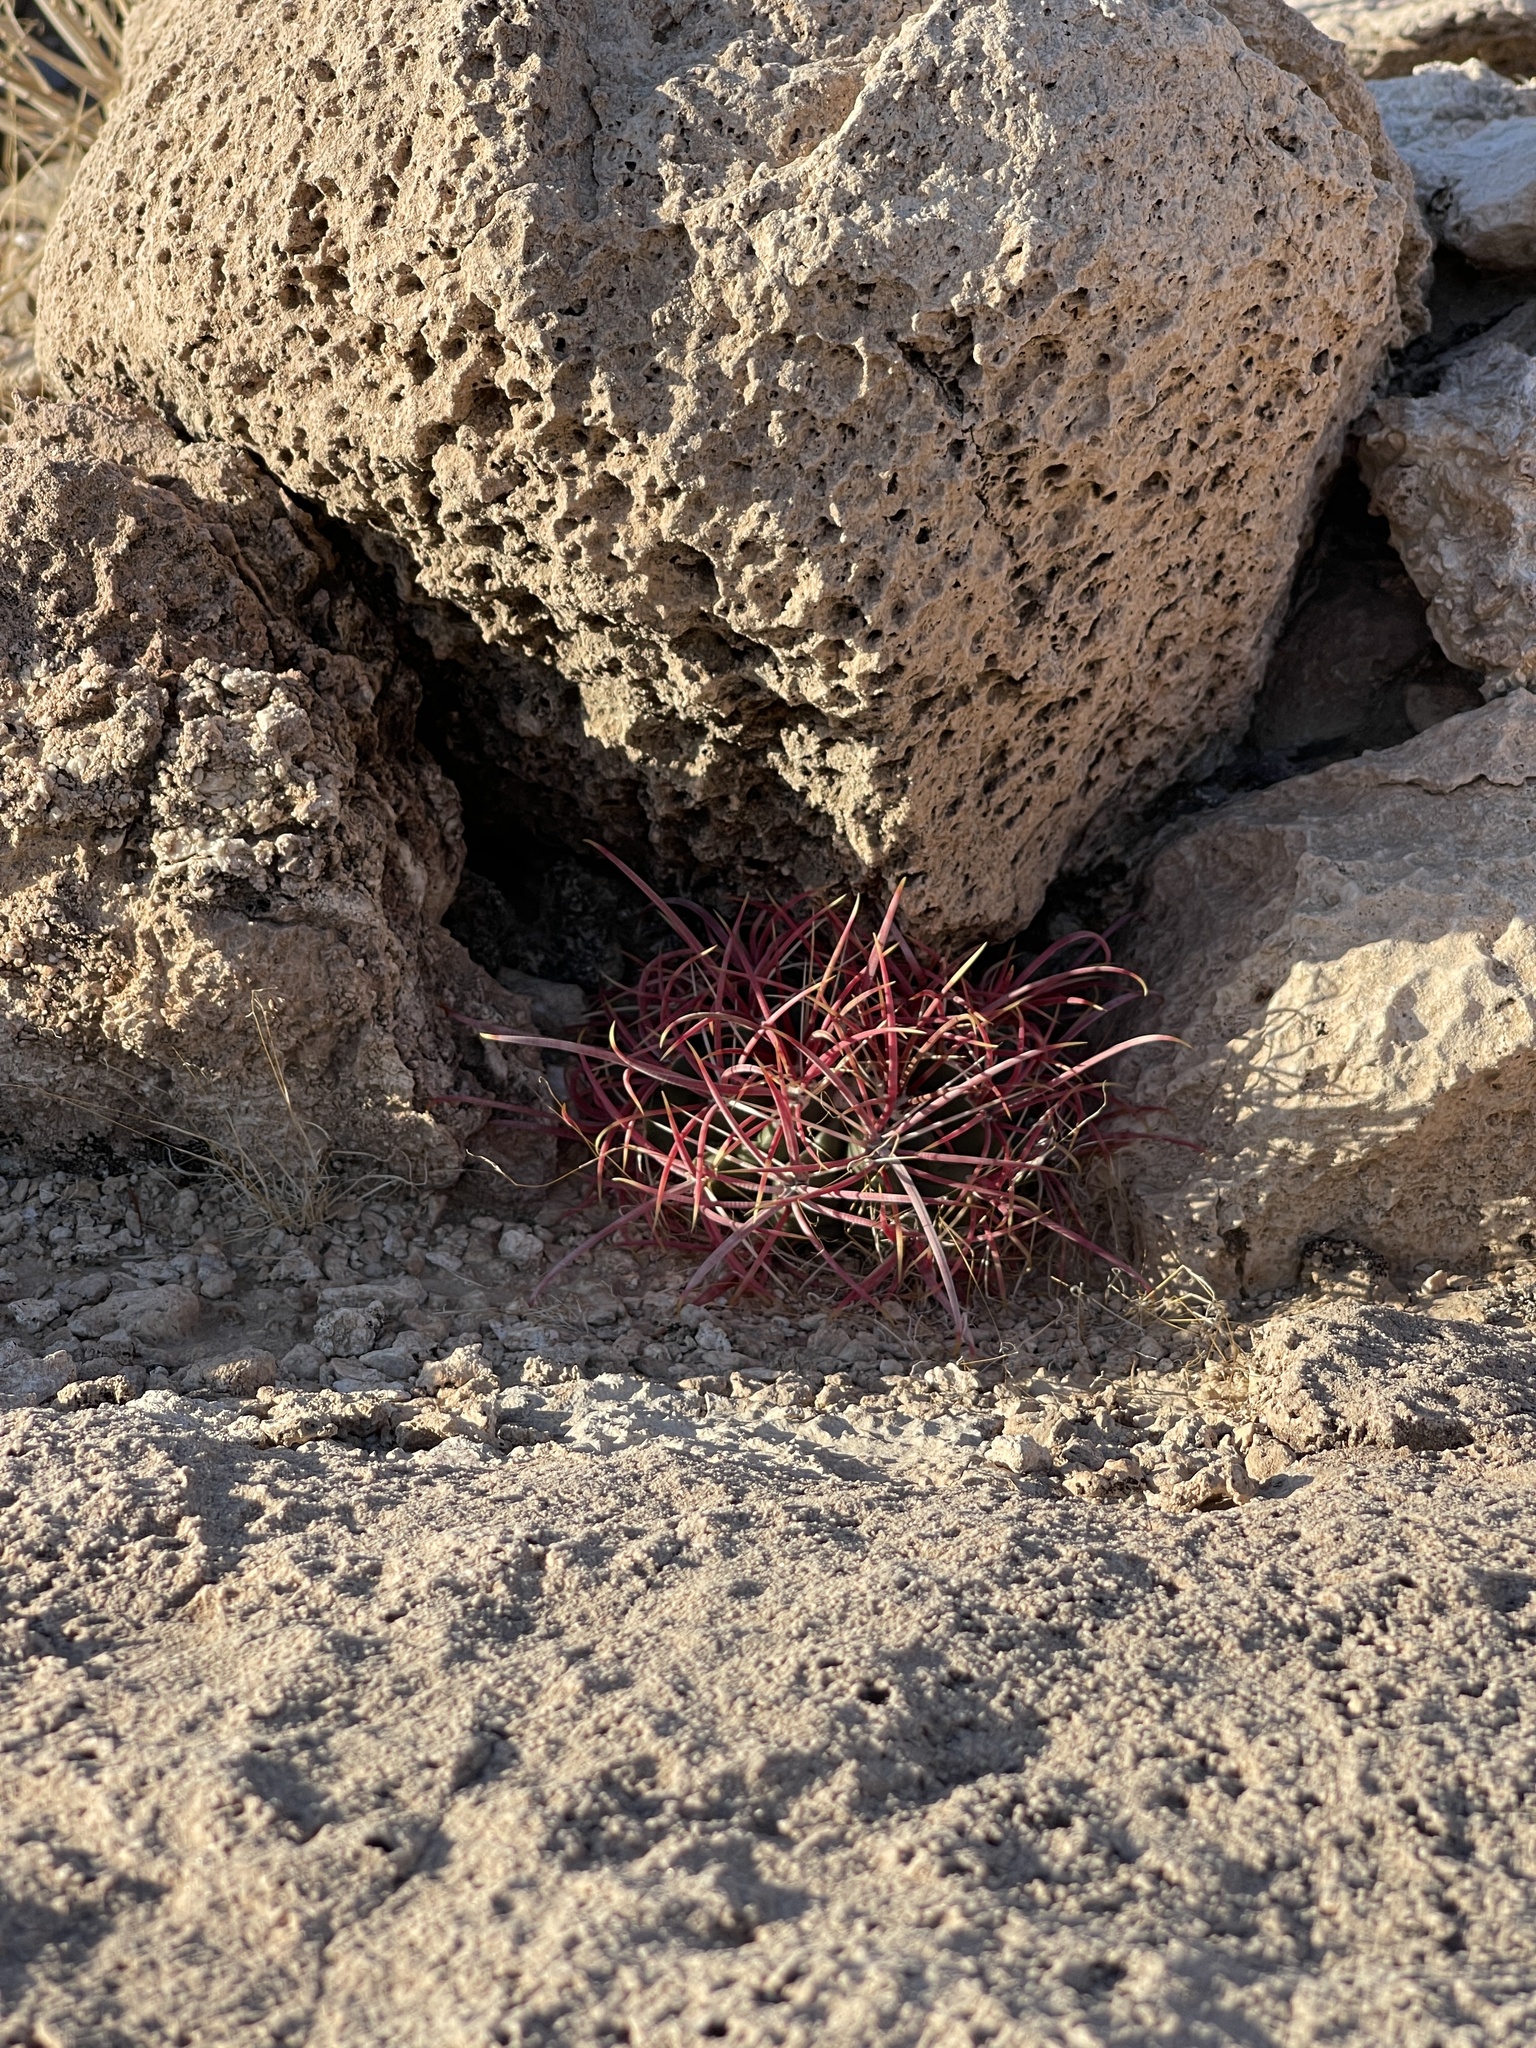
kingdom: Plantae
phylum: Tracheophyta
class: Magnoliopsida
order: Caryophyllales
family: Cactaceae
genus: Ferocactus
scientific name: Ferocactus cylindraceus
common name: California barrel cactus
